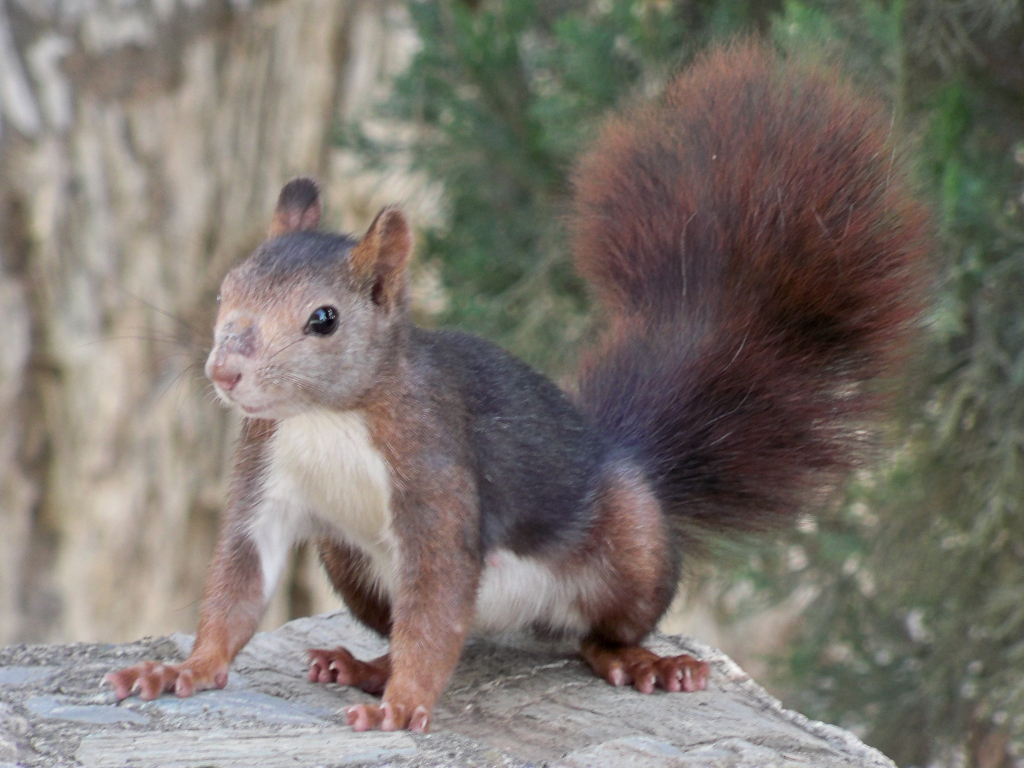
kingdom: Animalia
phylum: Chordata
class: Mammalia
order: Rodentia
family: Sciuridae
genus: Sciurus
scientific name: Sciurus vulgaris
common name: Eurasian red squirrel
